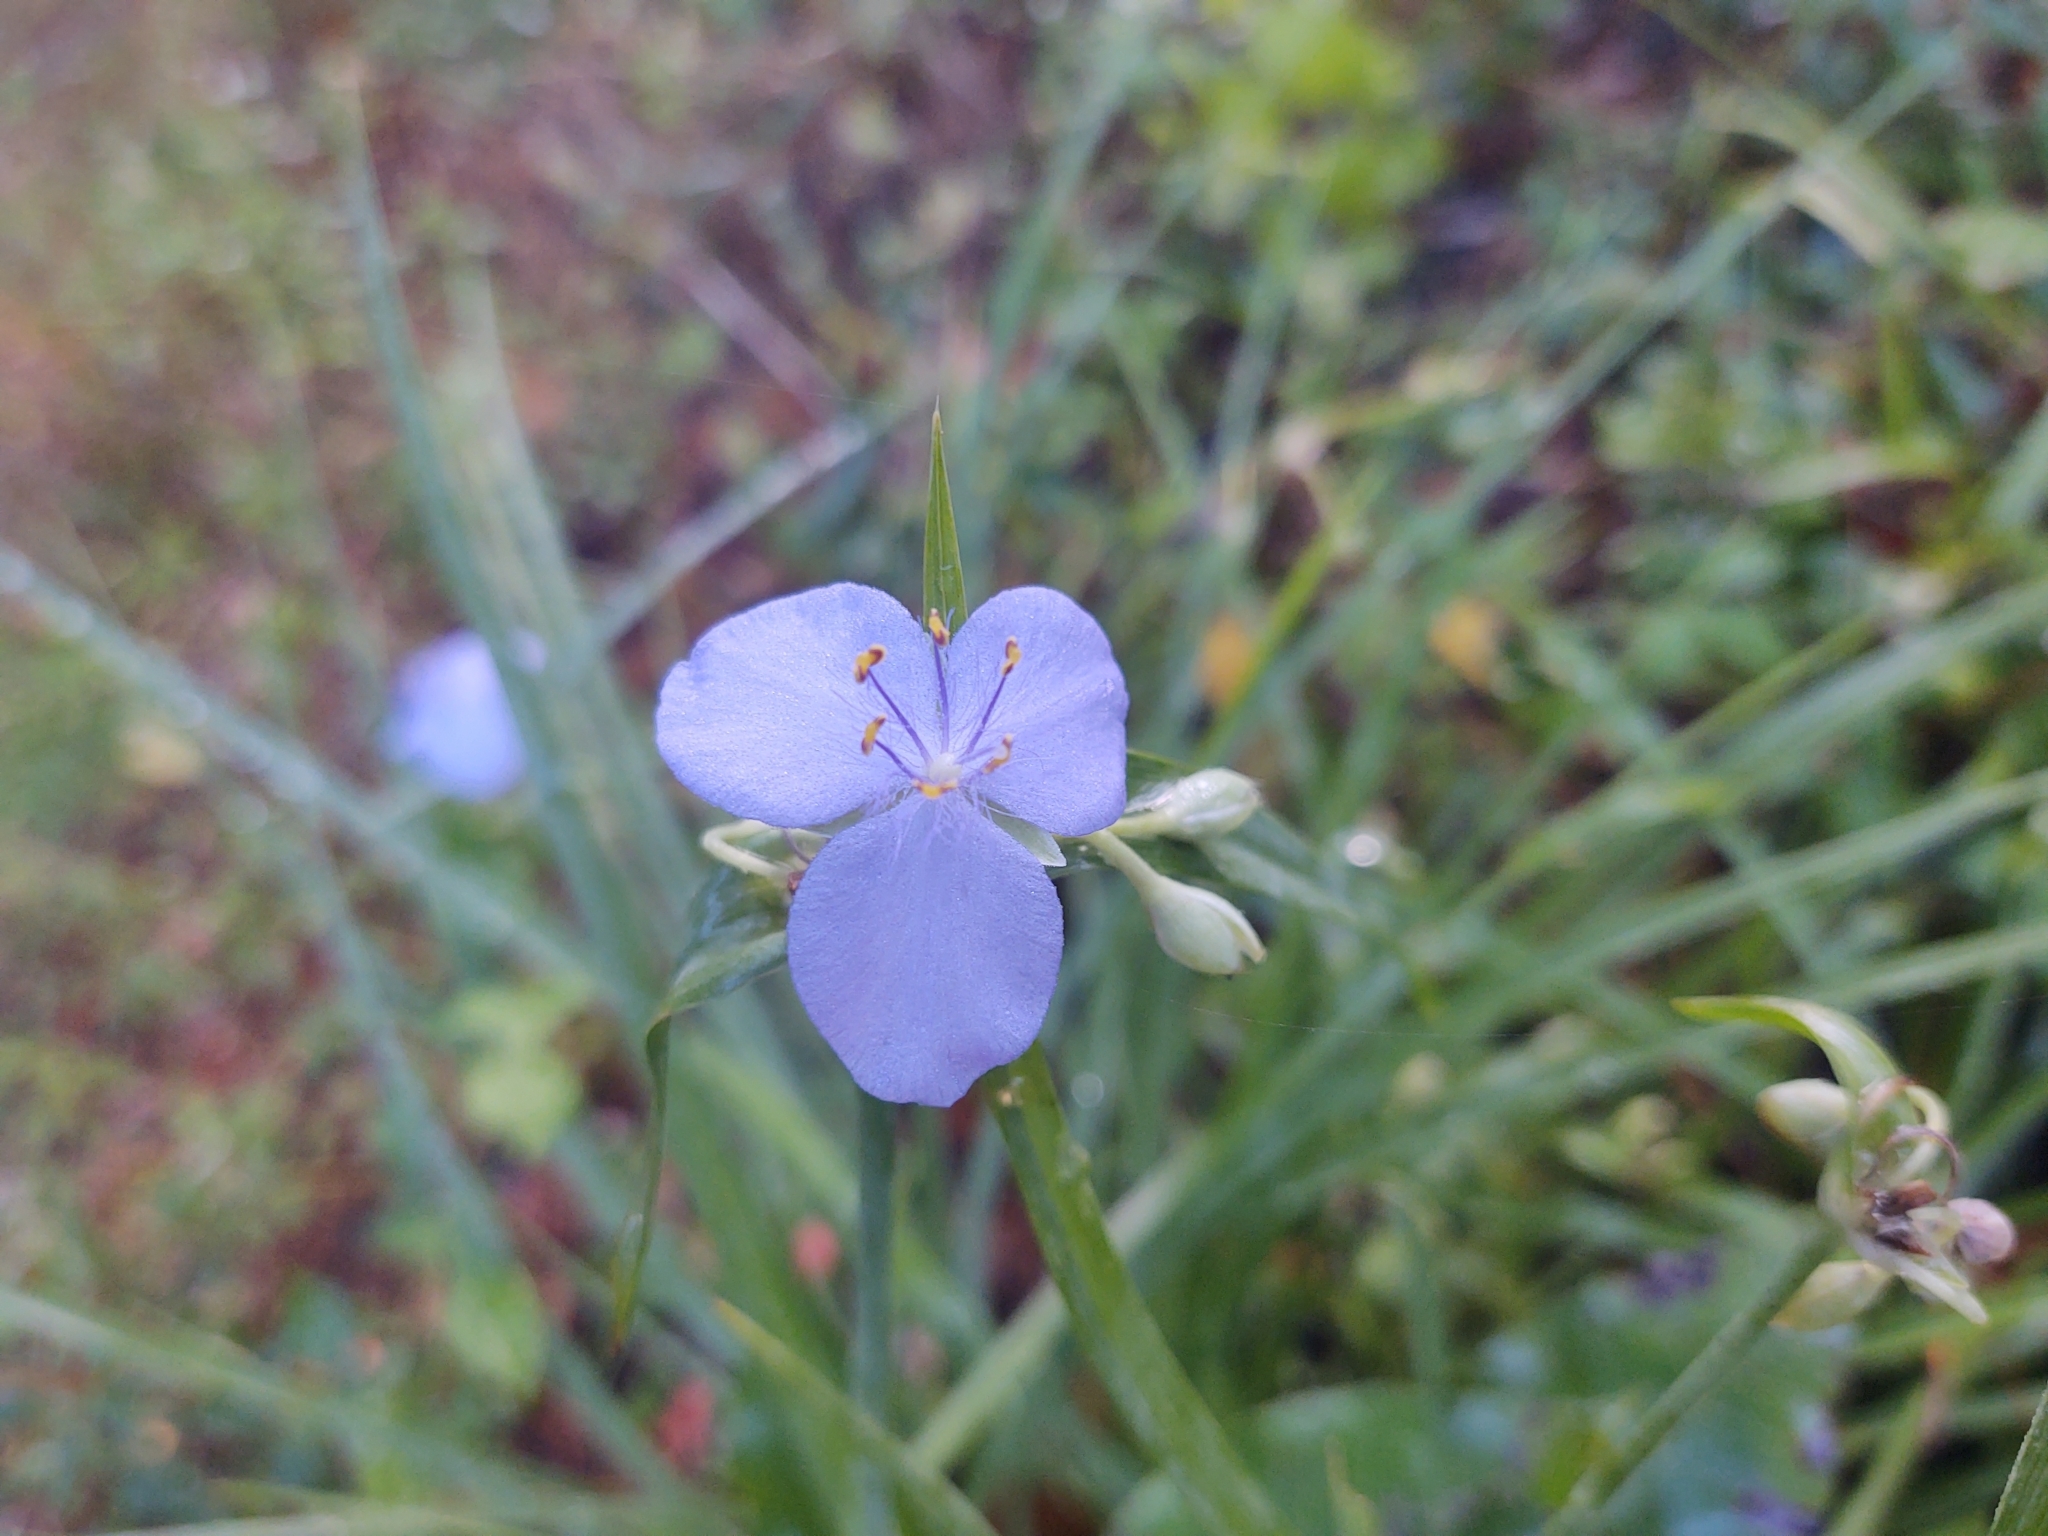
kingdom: Plantae
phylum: Tracheophyta
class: Liliopsida
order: Commelinales
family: Commelinaceae
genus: Tradescantia
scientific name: Tradescantia ohiensis
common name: Ohio spiderwort
